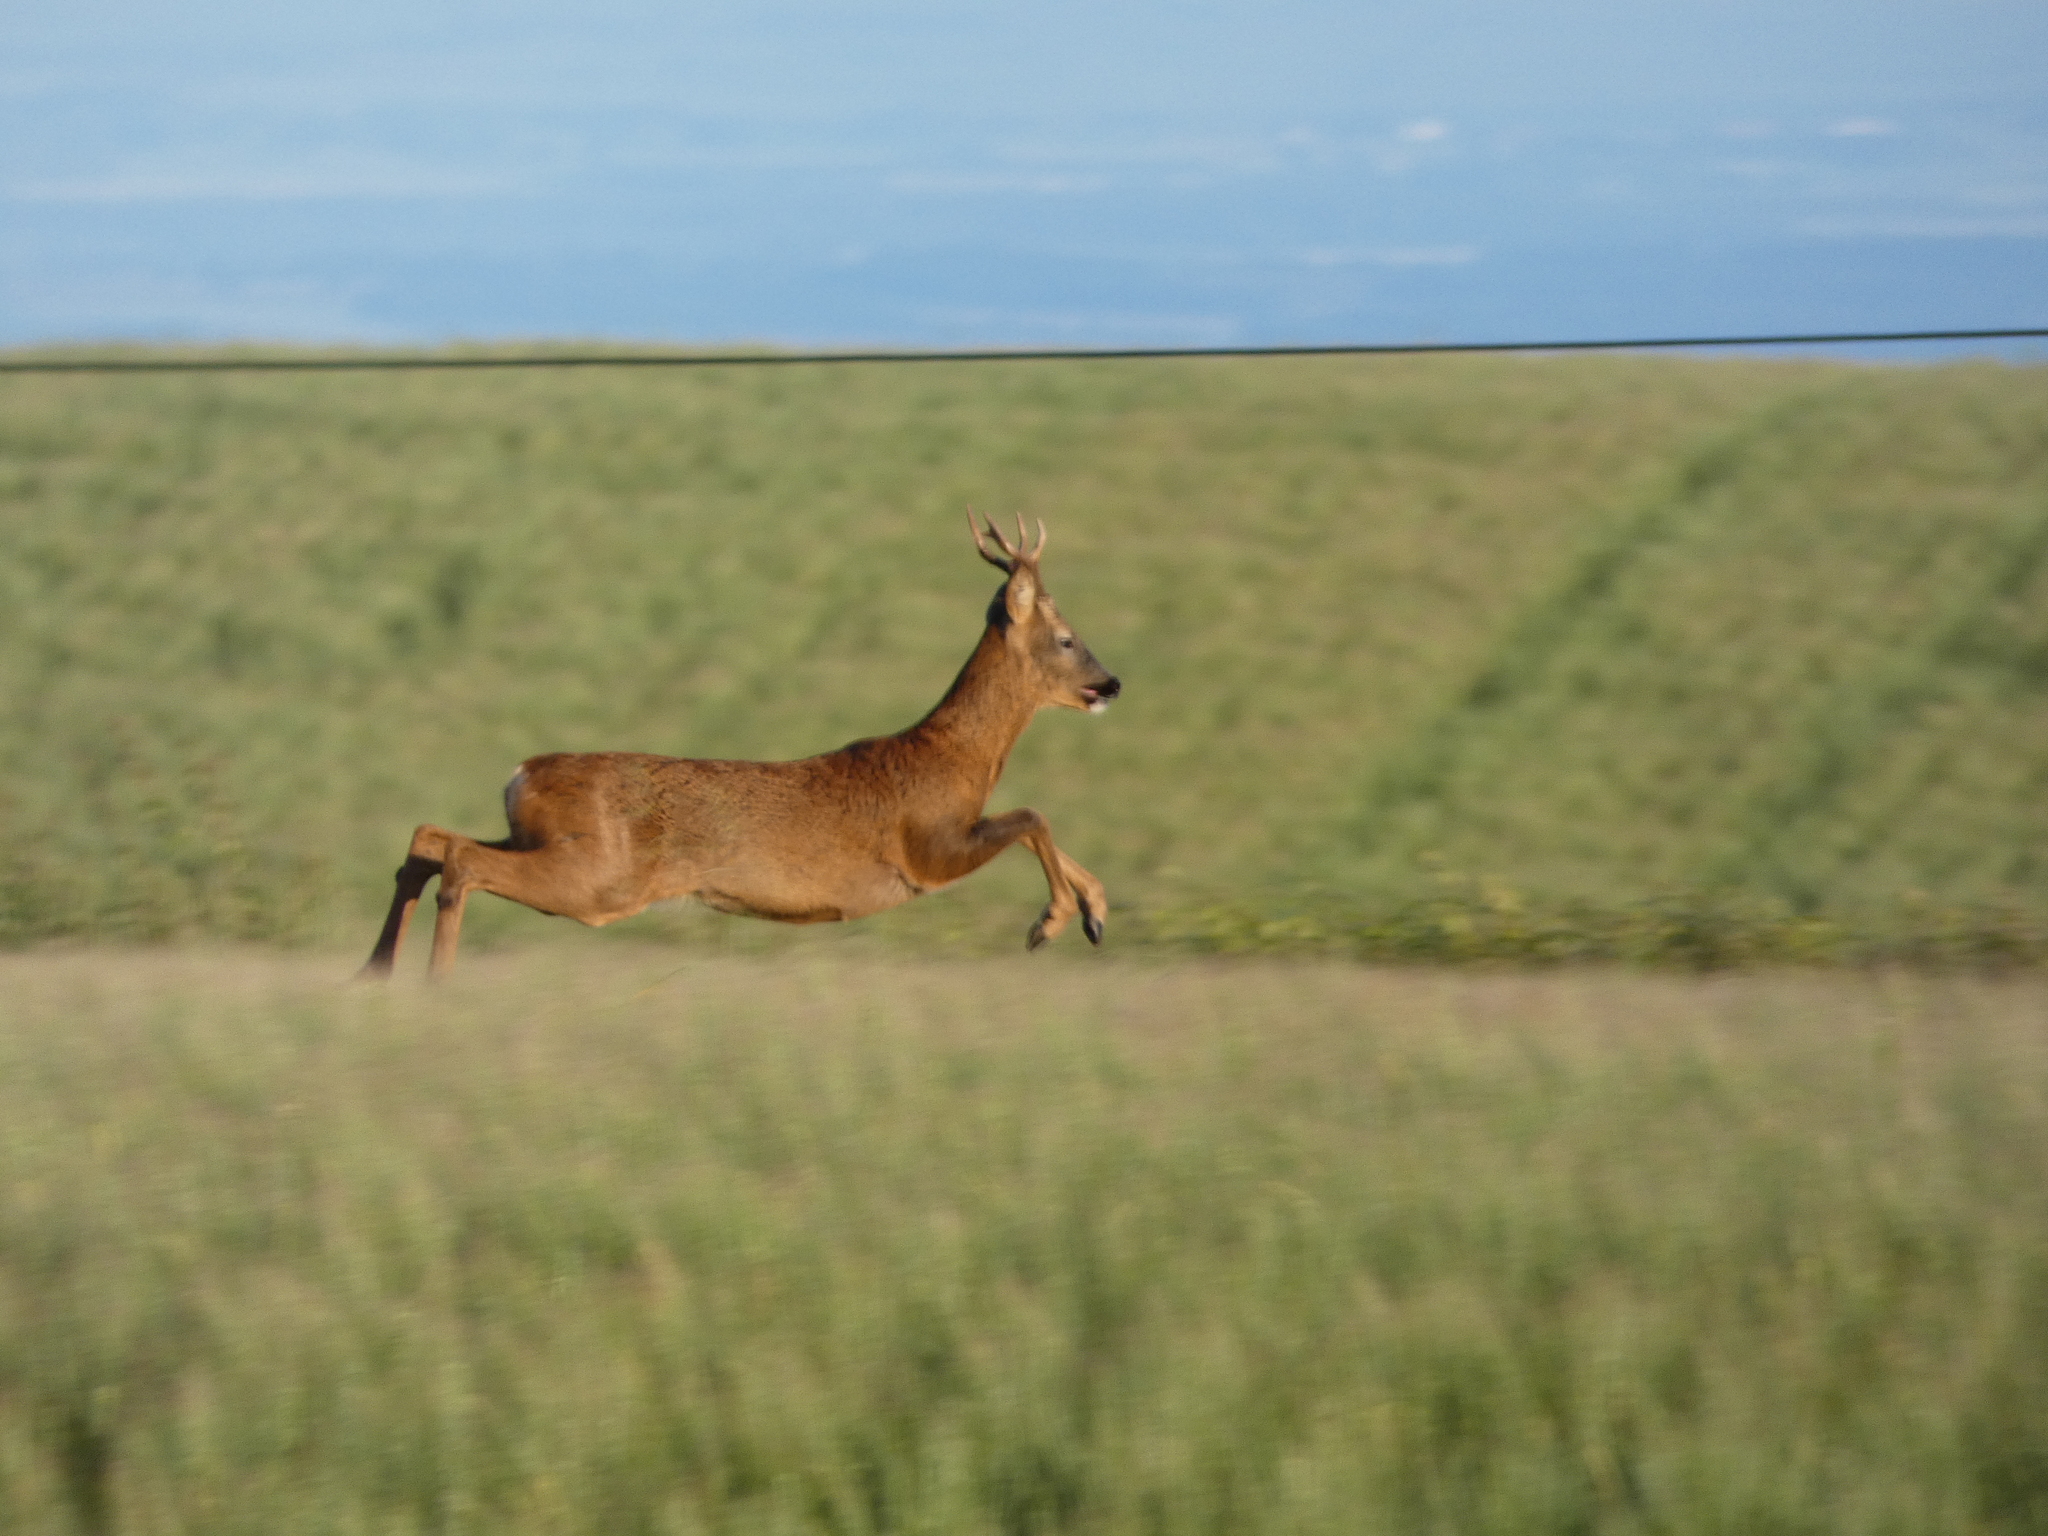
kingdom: Animalia
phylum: Chordata
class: Mammalia
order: Artiodactyla
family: Cervidae
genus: Capreolus
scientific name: Capreolus capreolus
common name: Western roe deer
